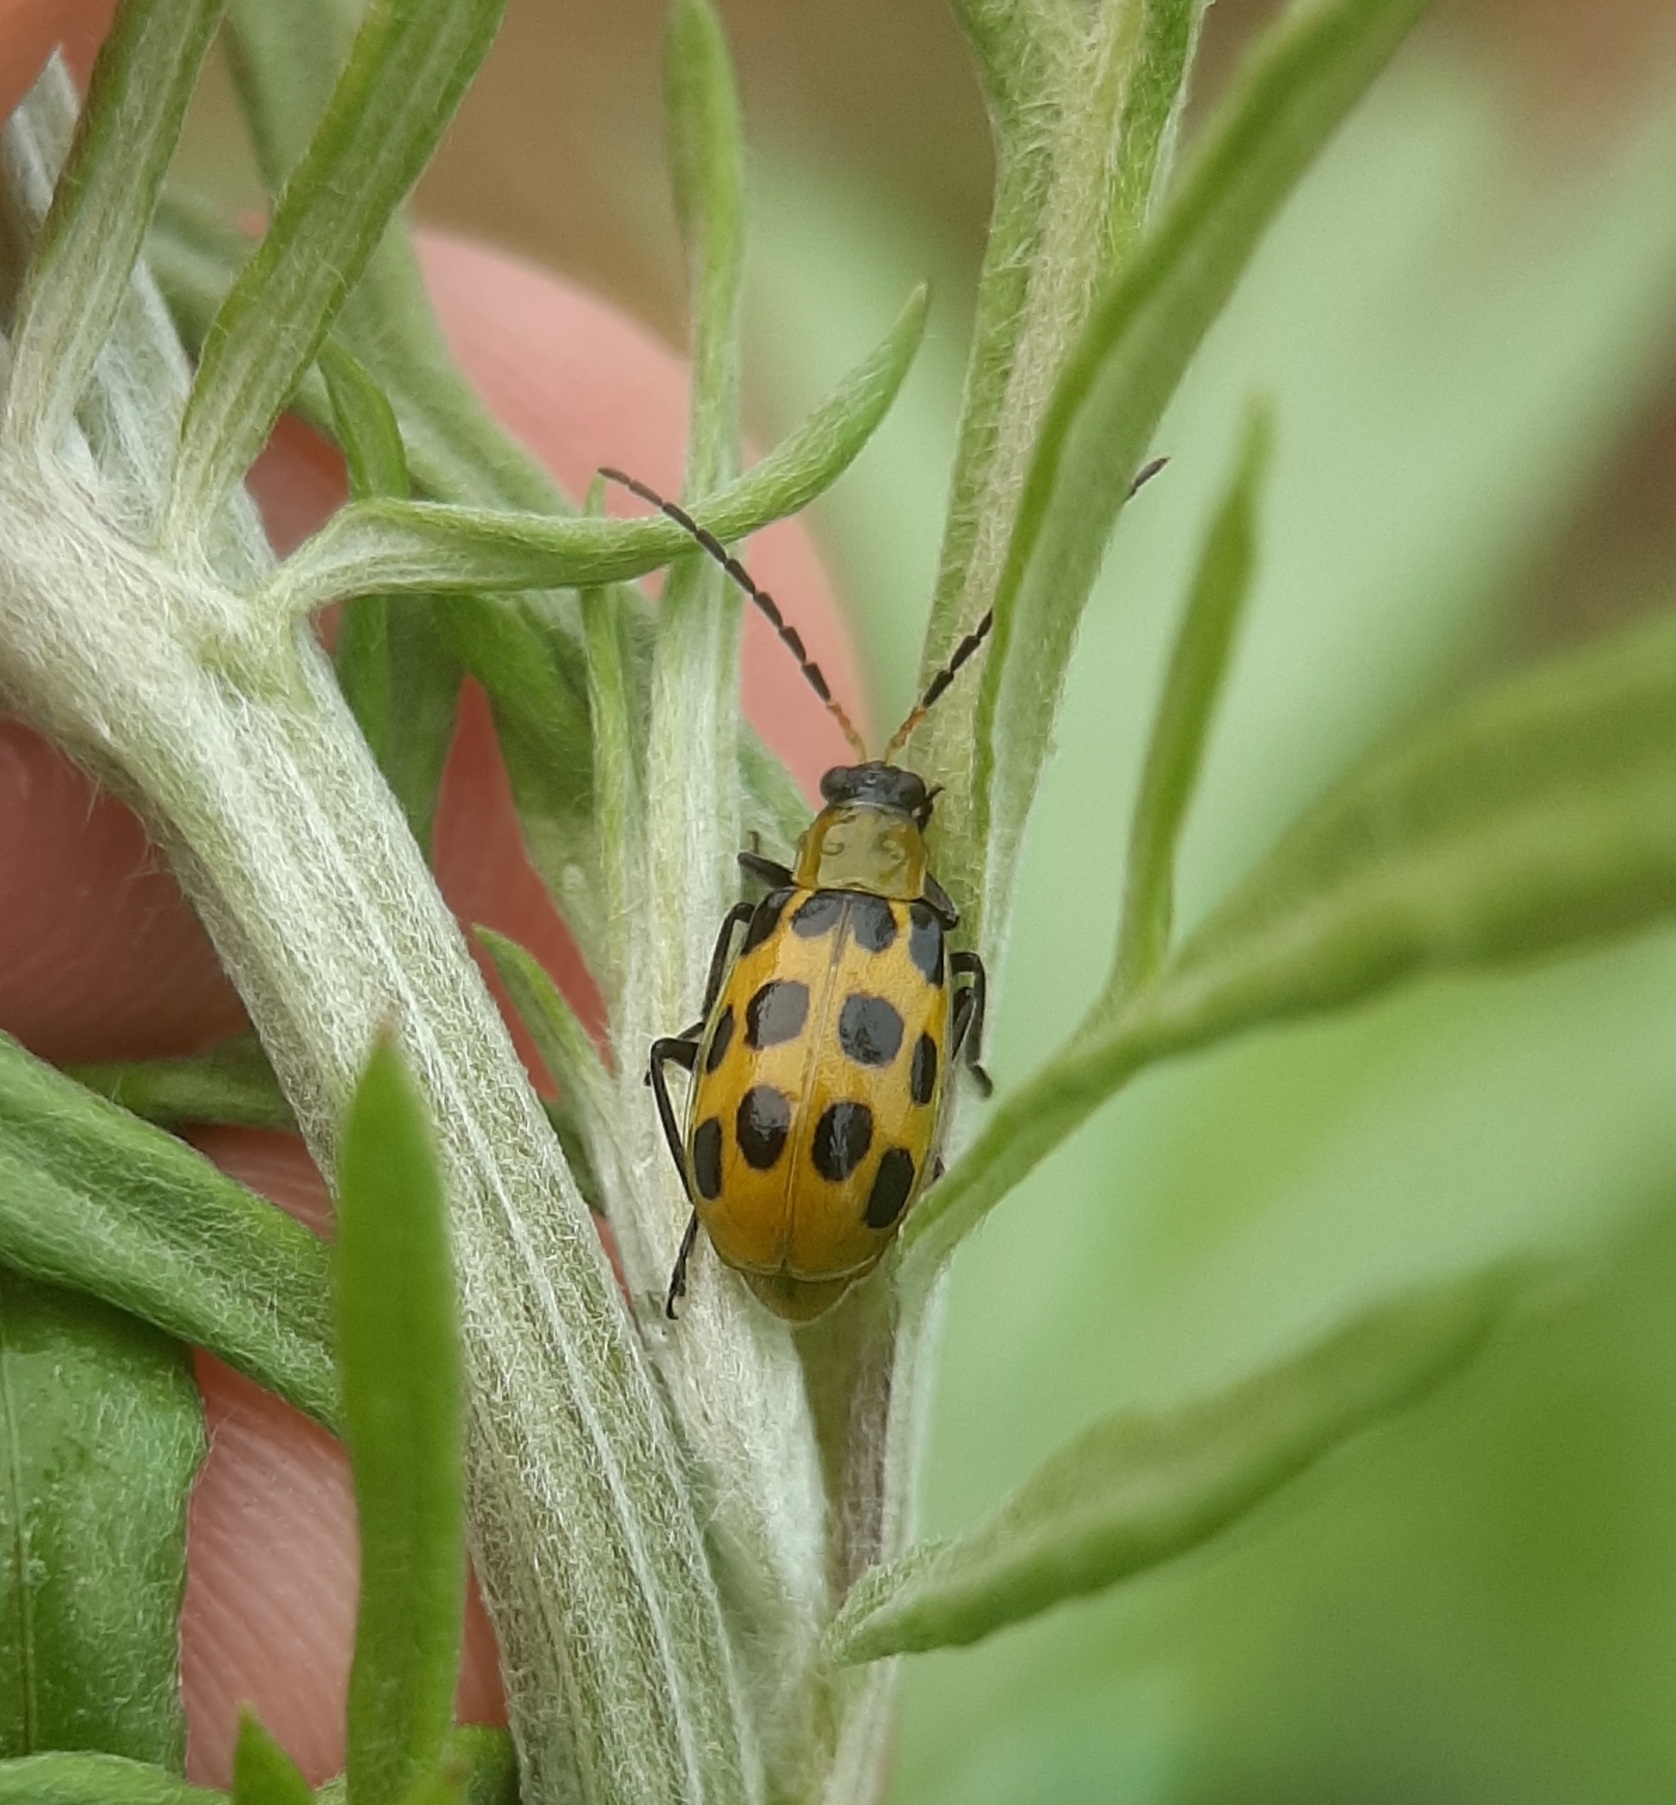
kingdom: Animalia
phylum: Arthropoda
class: Insecta
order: Coleoptera
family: Chrysomelidae
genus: Diabrotica
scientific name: Diabrotica undecimpunctata
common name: Spotted cucumber beetle
